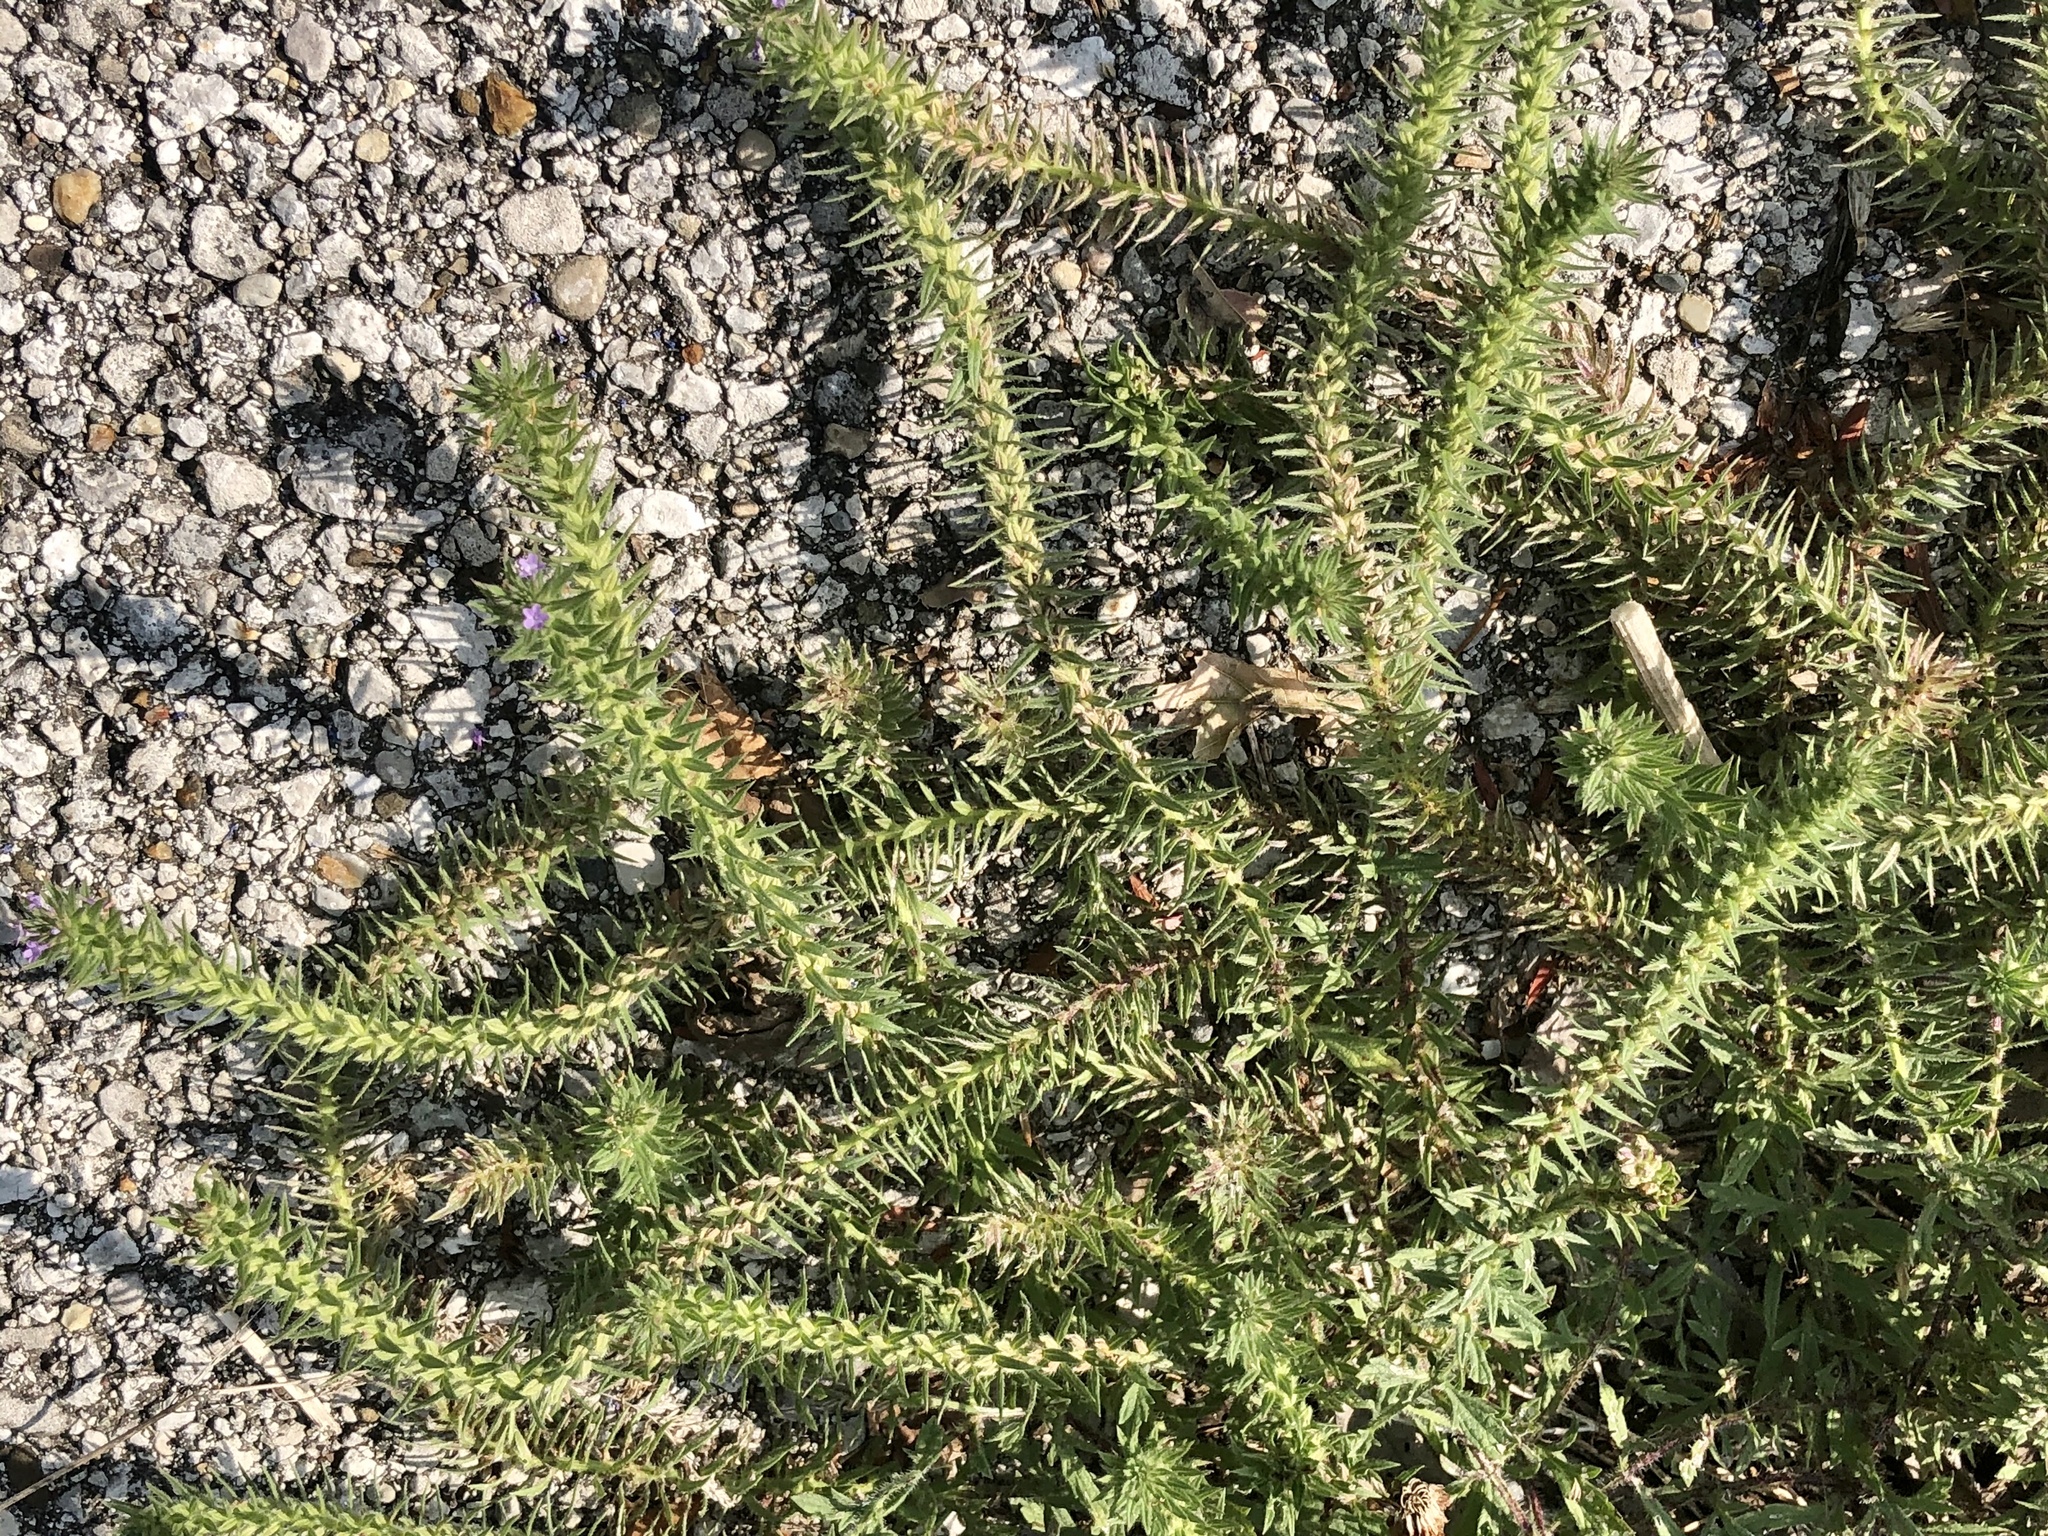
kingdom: Plantae
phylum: Tracheophyta
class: Magnoliopsida
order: Lamiales
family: Verbenaceae
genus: Verbena
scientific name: Verbena bracteata
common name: Bracted vervain
